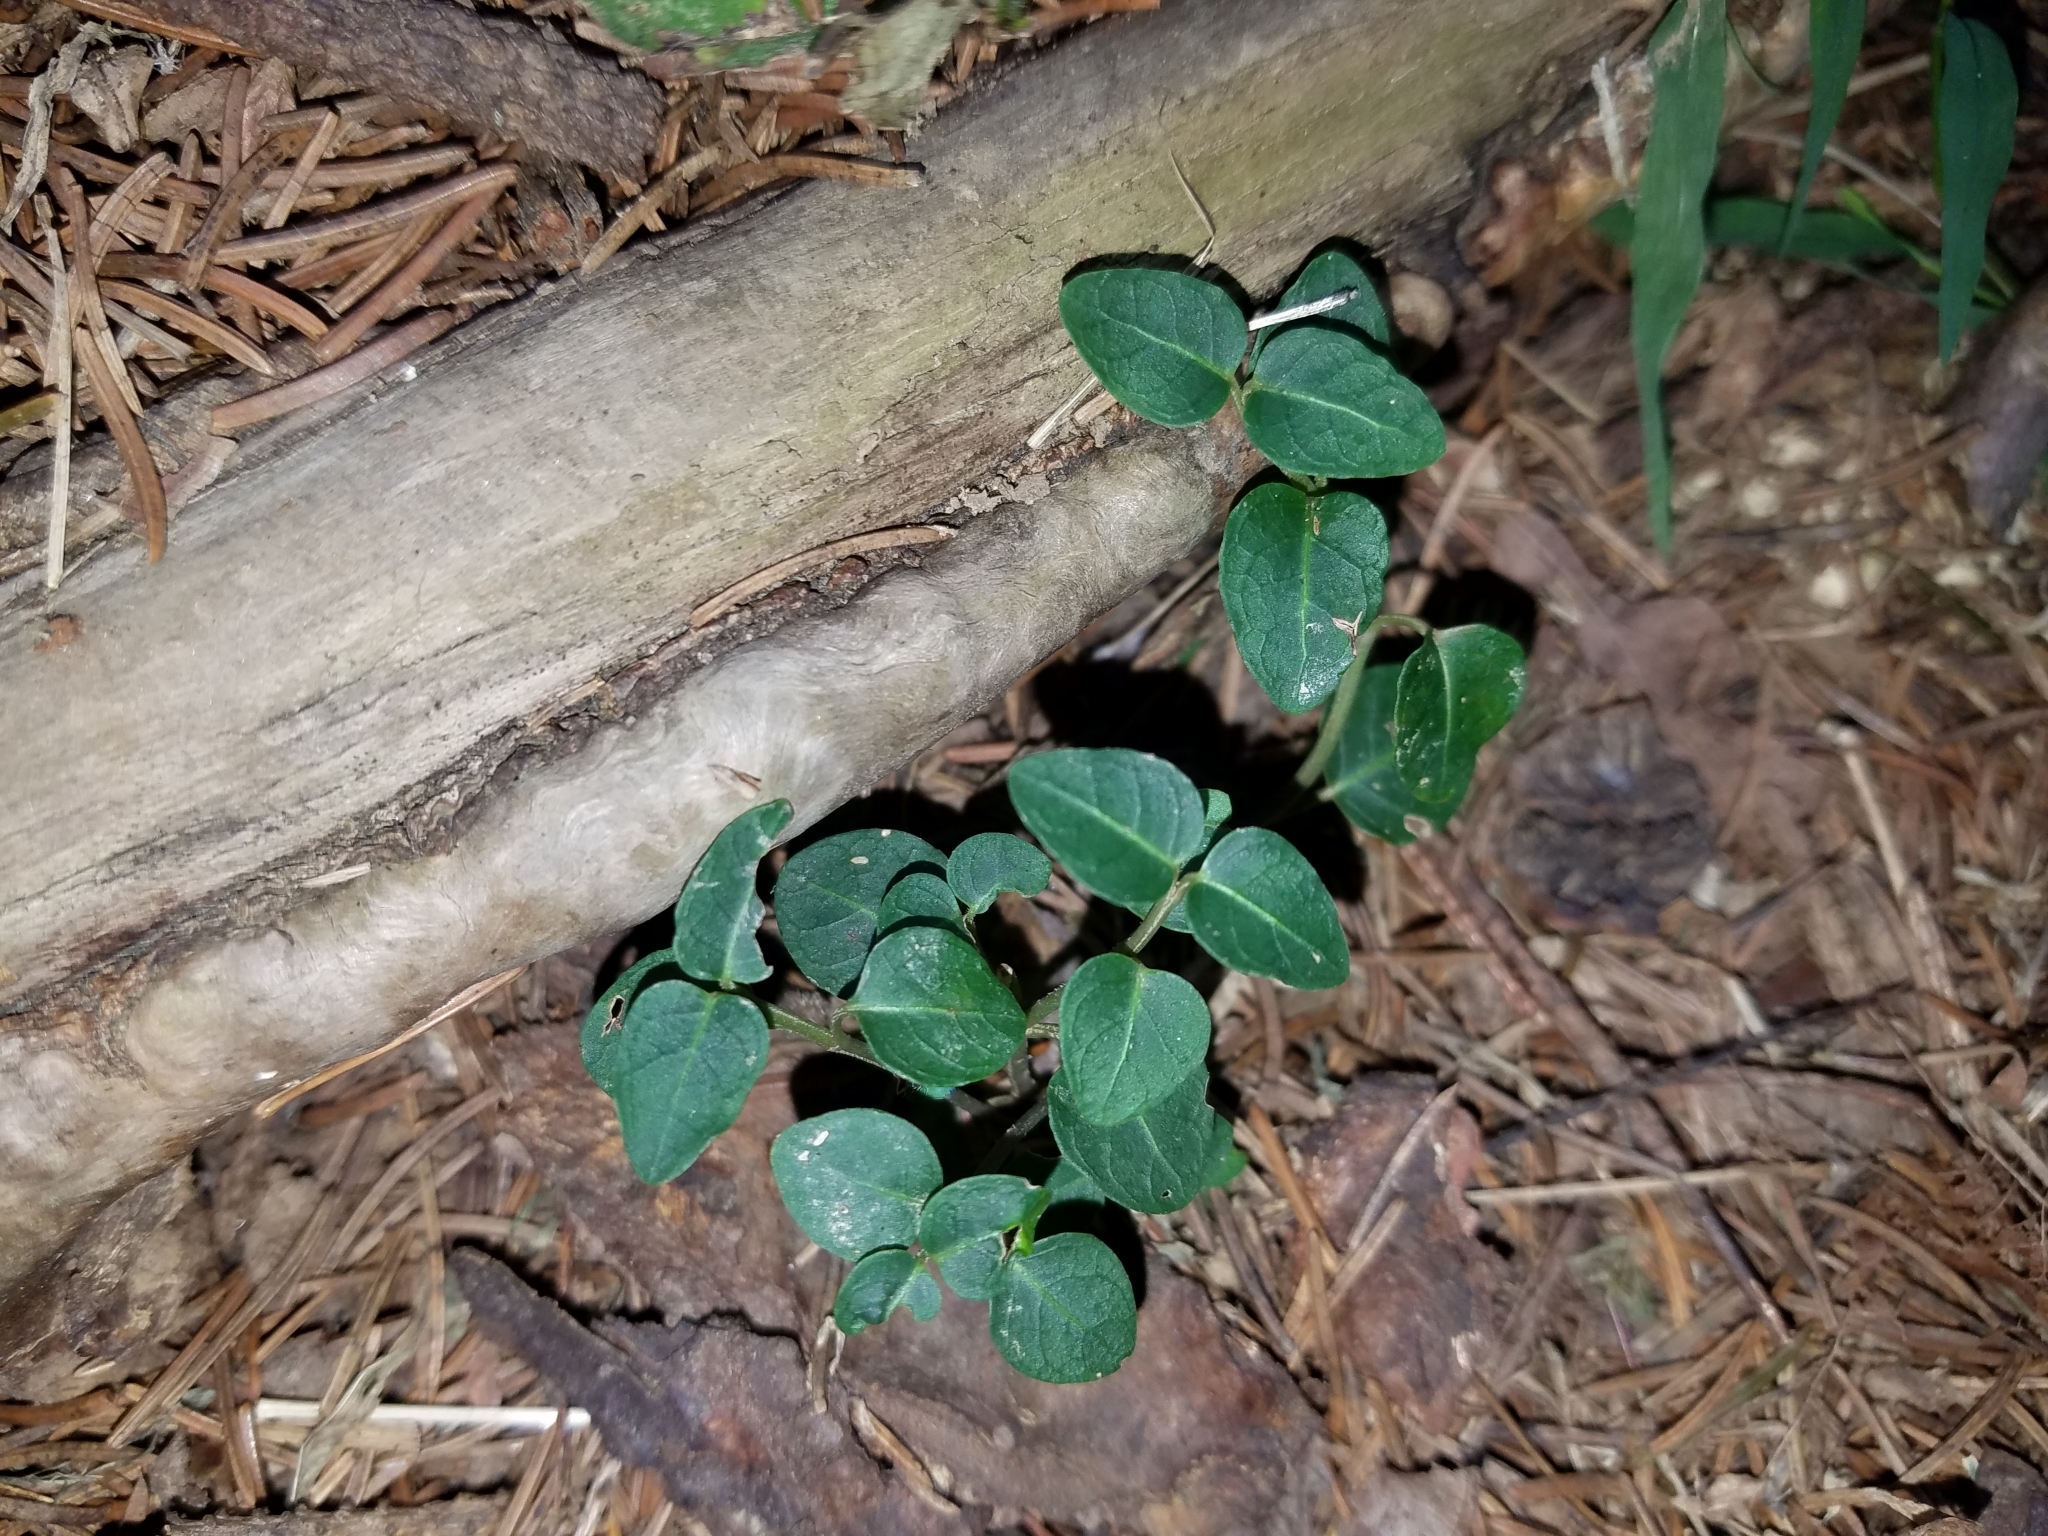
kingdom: Plantae
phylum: Tracheophyta
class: Magnoliopsida
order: Gentianales
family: Rubiaceae
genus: Mitchella
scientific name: Mitchella repens
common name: Partridge-berry
